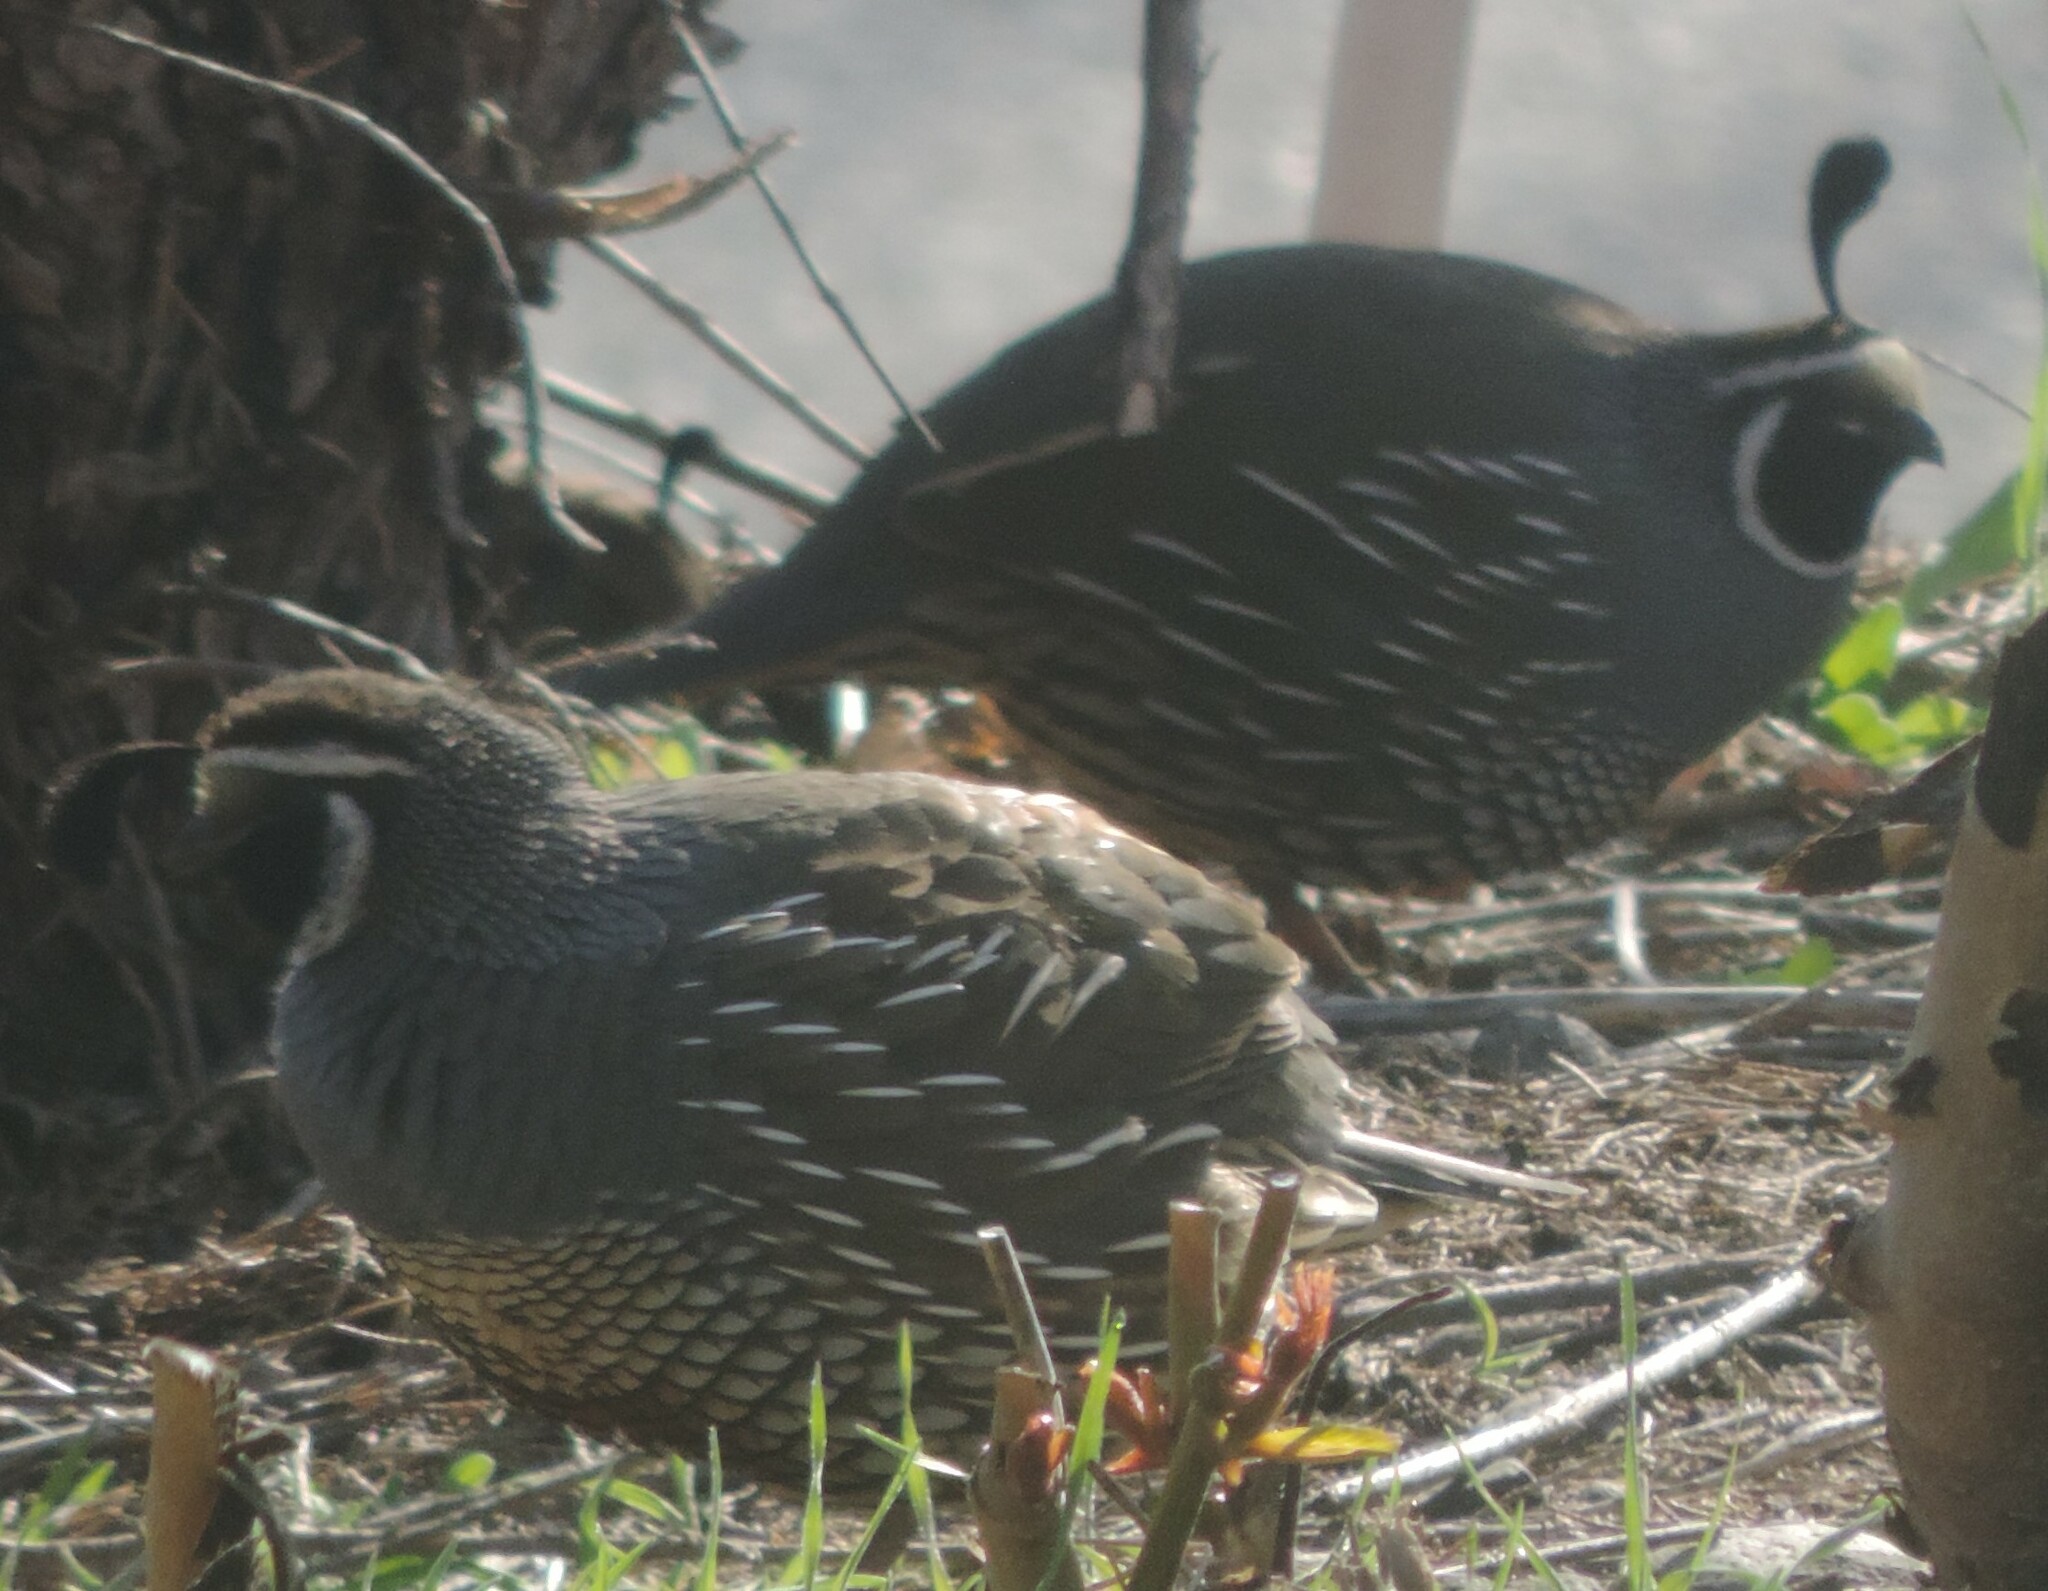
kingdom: Animalia
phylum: Chordata
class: Aves
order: Galliformes
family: Odontophoridae
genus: Callipepla
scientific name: Callipepla californica
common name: California quail
